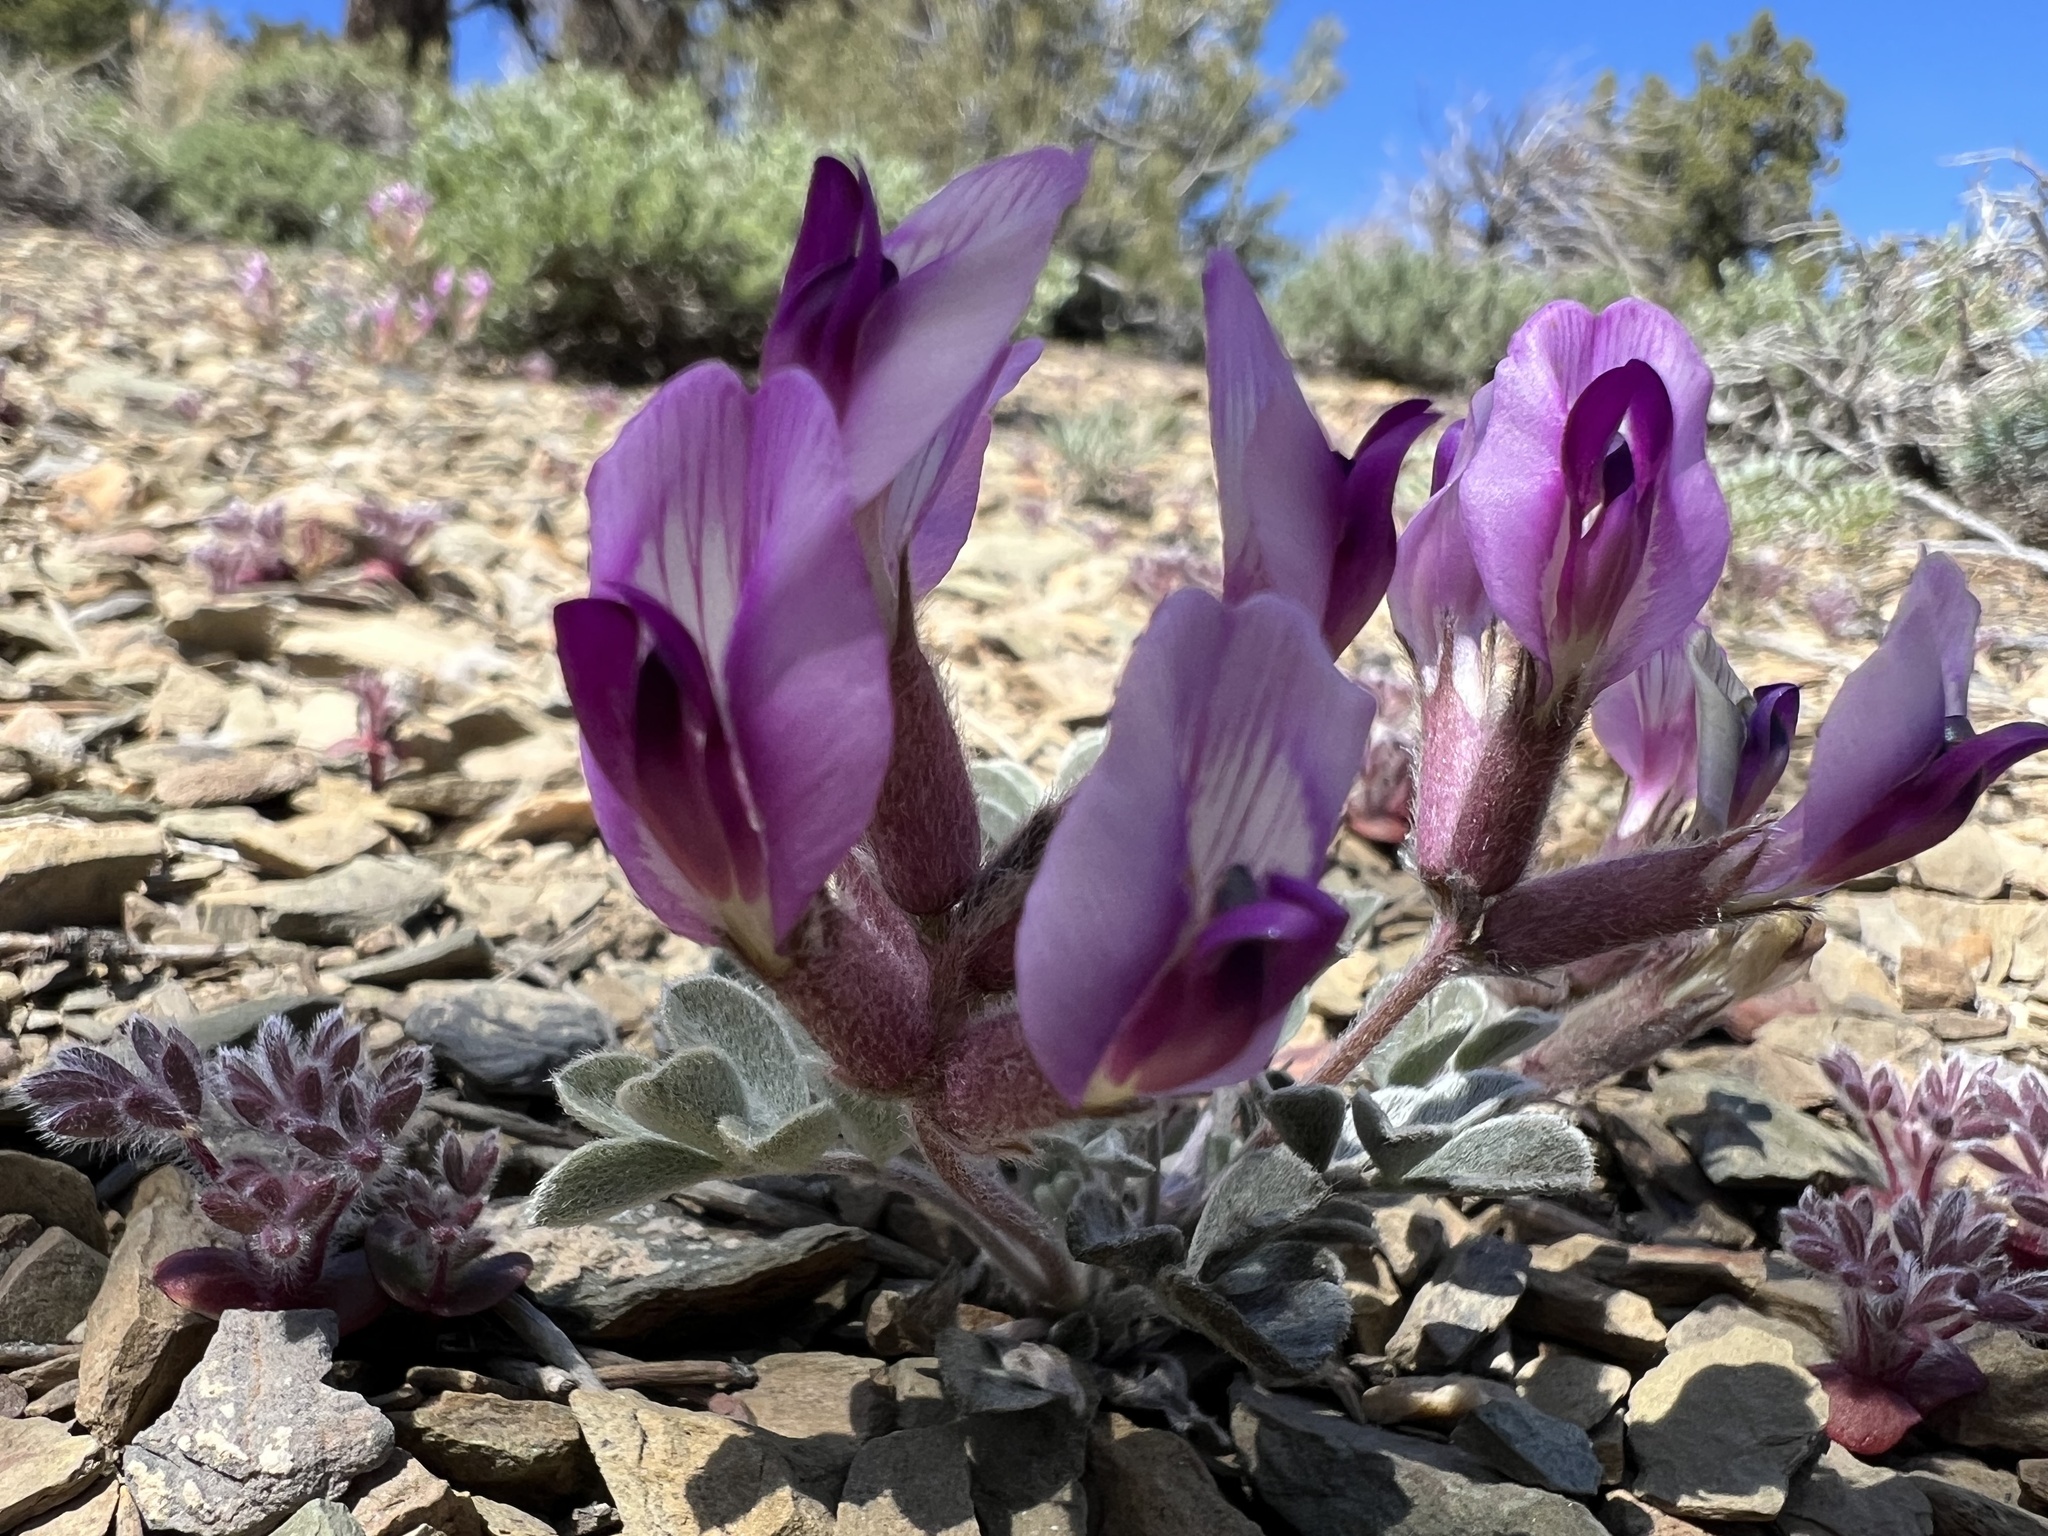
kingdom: Plantae
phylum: Tracheophyta
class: Magnoliopsida
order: Fabales
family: Fabaceae
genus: Astragalus
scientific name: Astragalus newberryi
